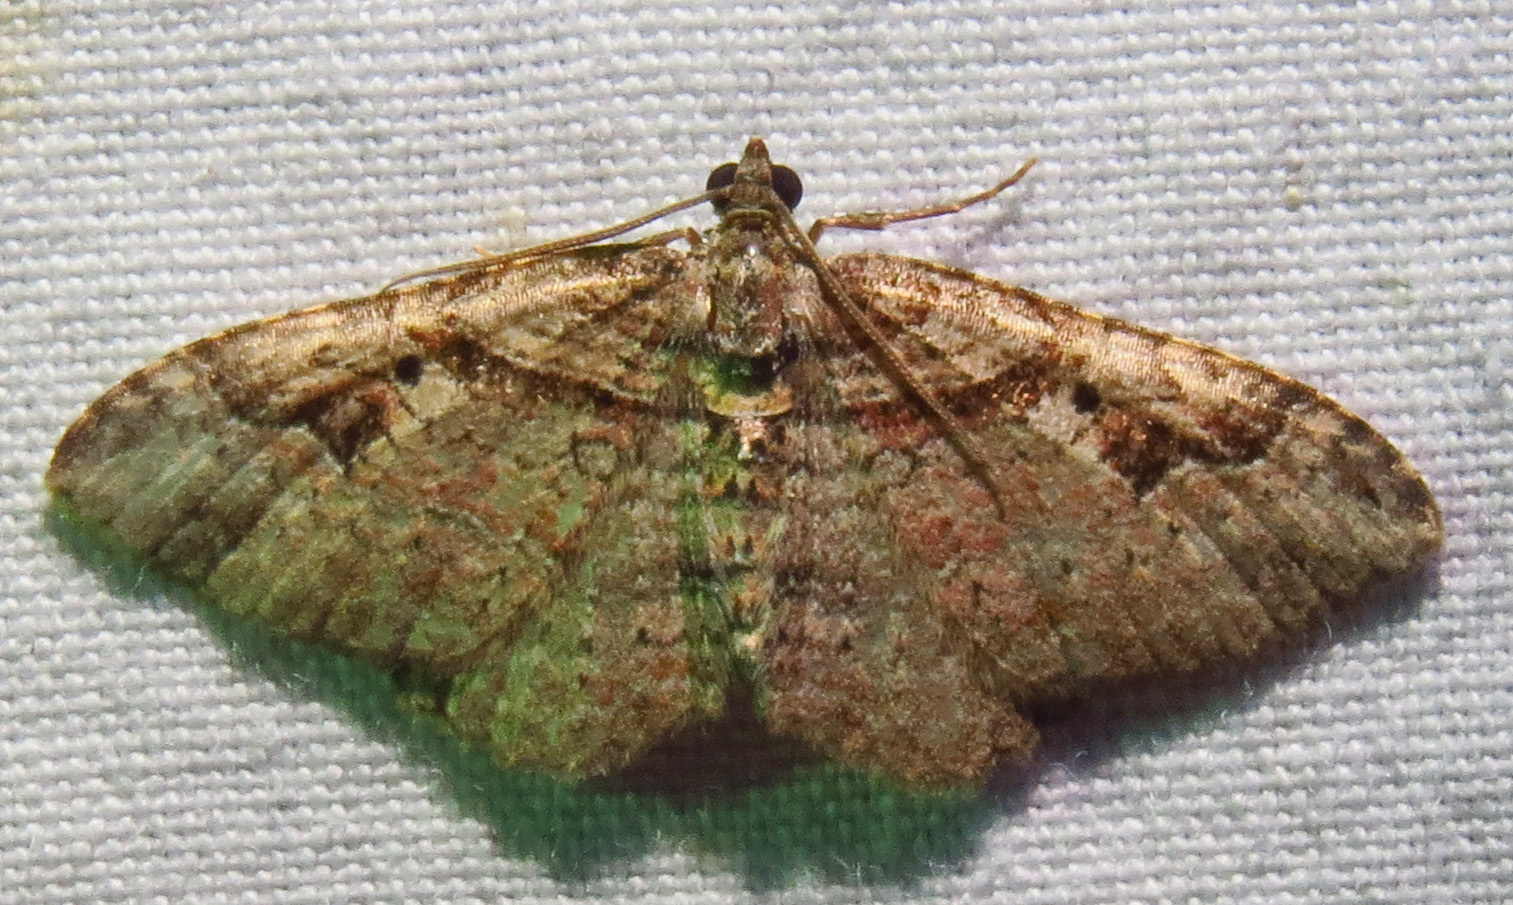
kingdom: Animalia
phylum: Arthropoda
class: Insecta
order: Lepidoptera
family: Geometridae
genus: Costaconvexa
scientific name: Costaconvexa centrostrigaria
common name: Bent-line carpet
